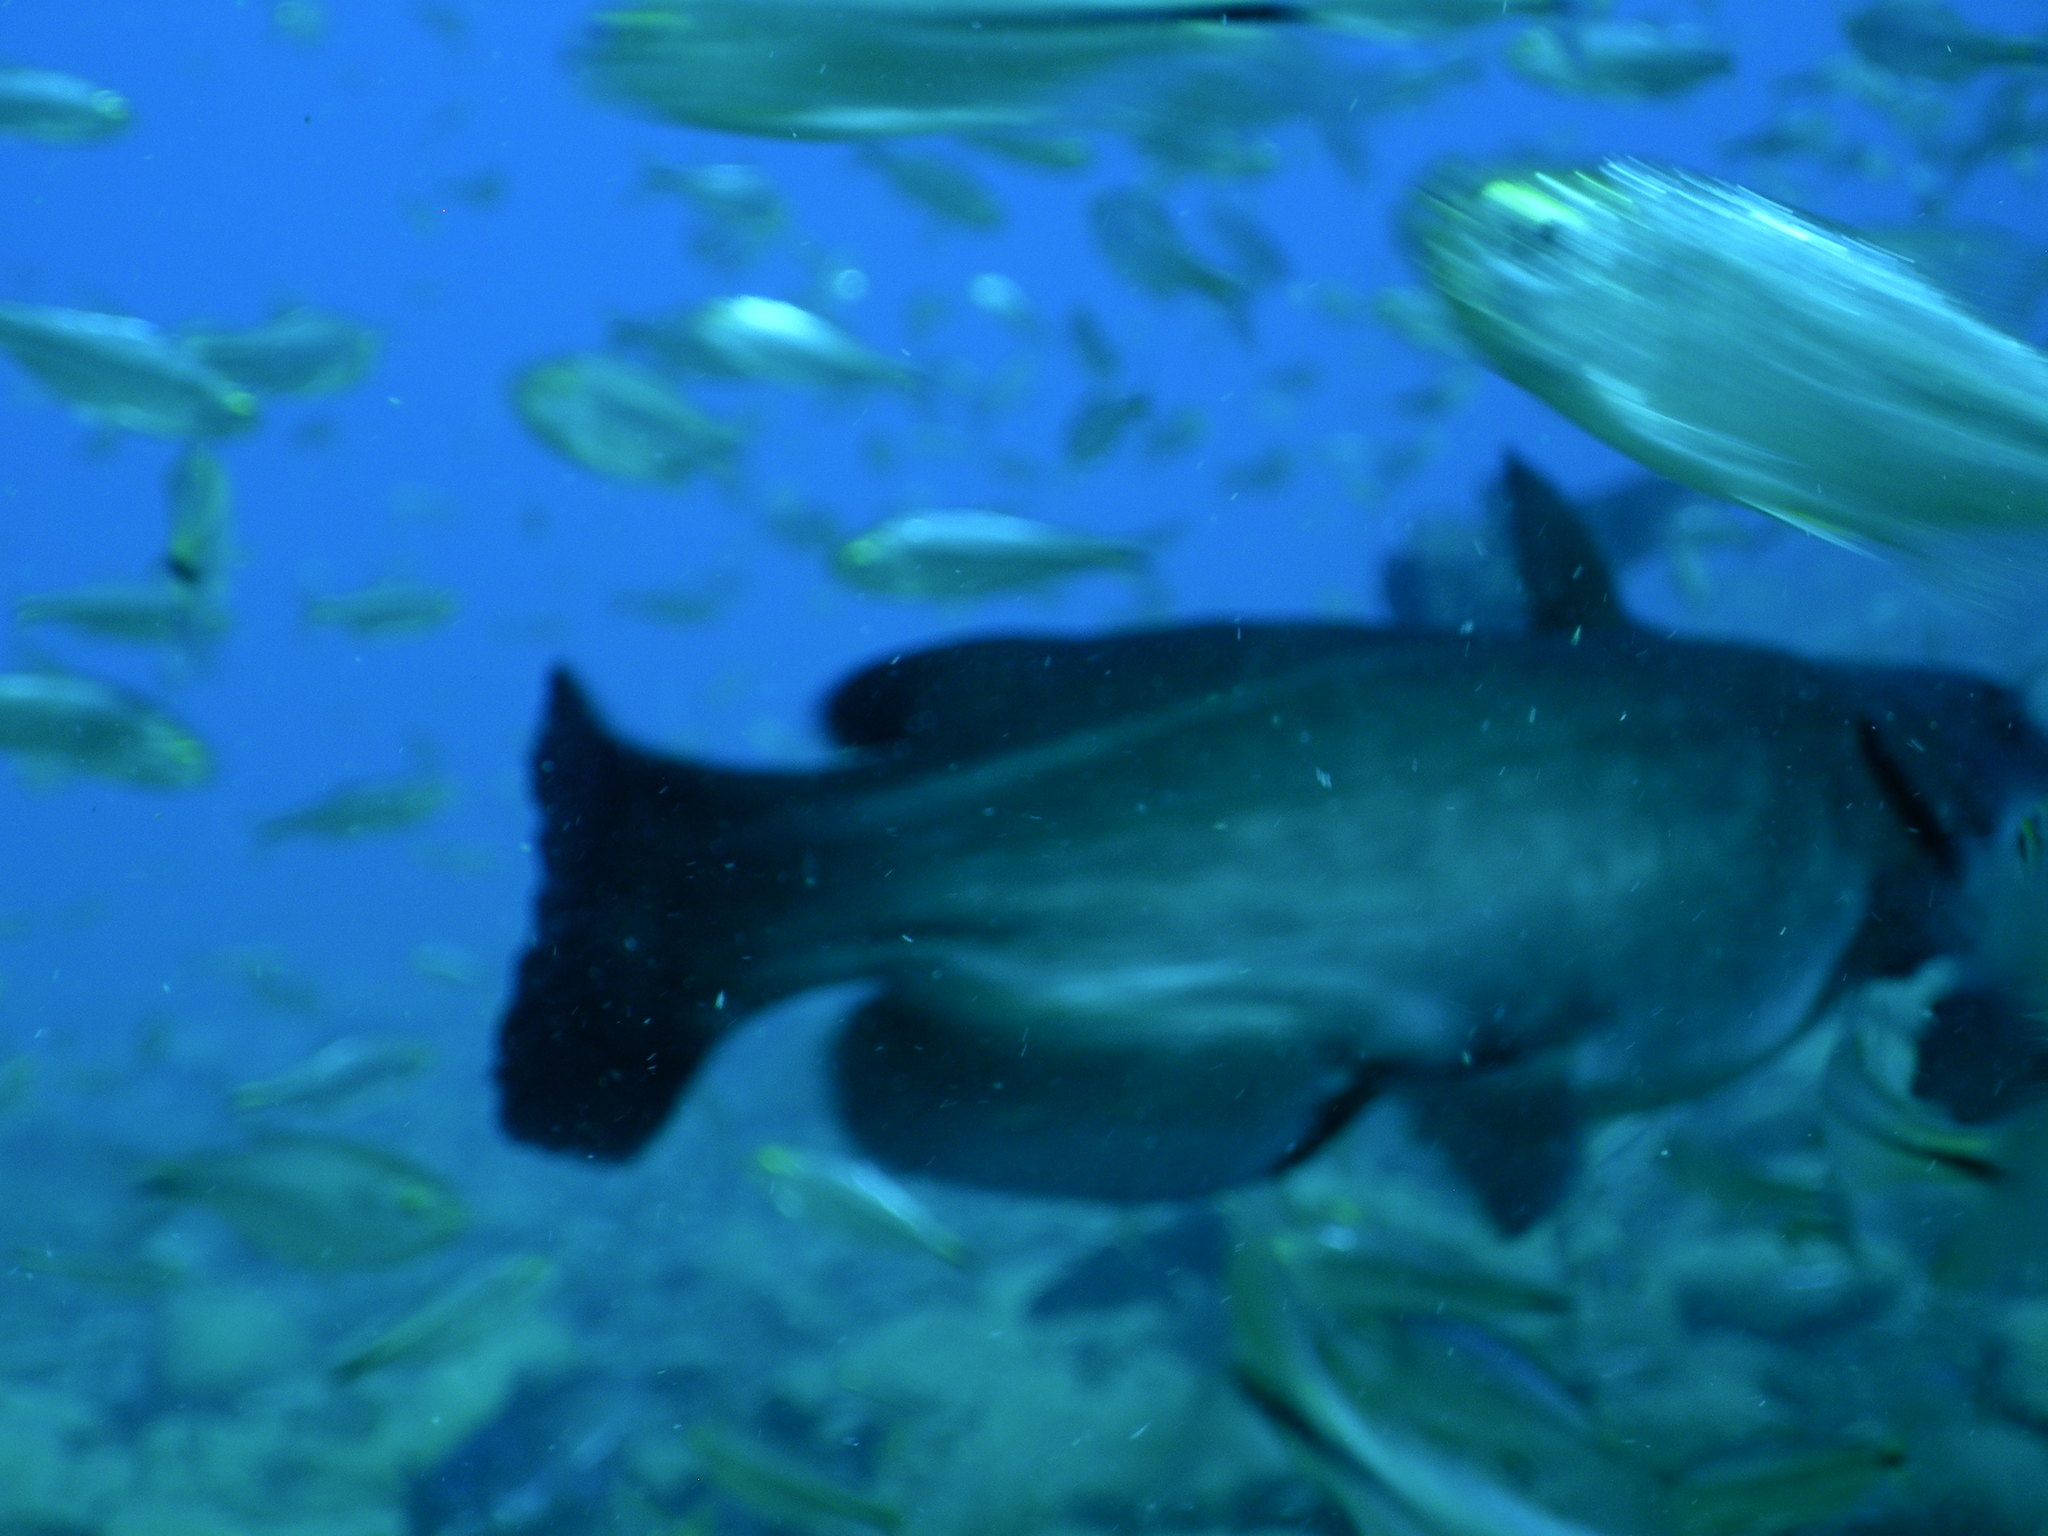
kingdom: Animalia
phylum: Chordata
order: Siluriformes
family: Ictaluridae
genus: Ictalurus
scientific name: Ictalurus punctatus
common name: Channel catfish
